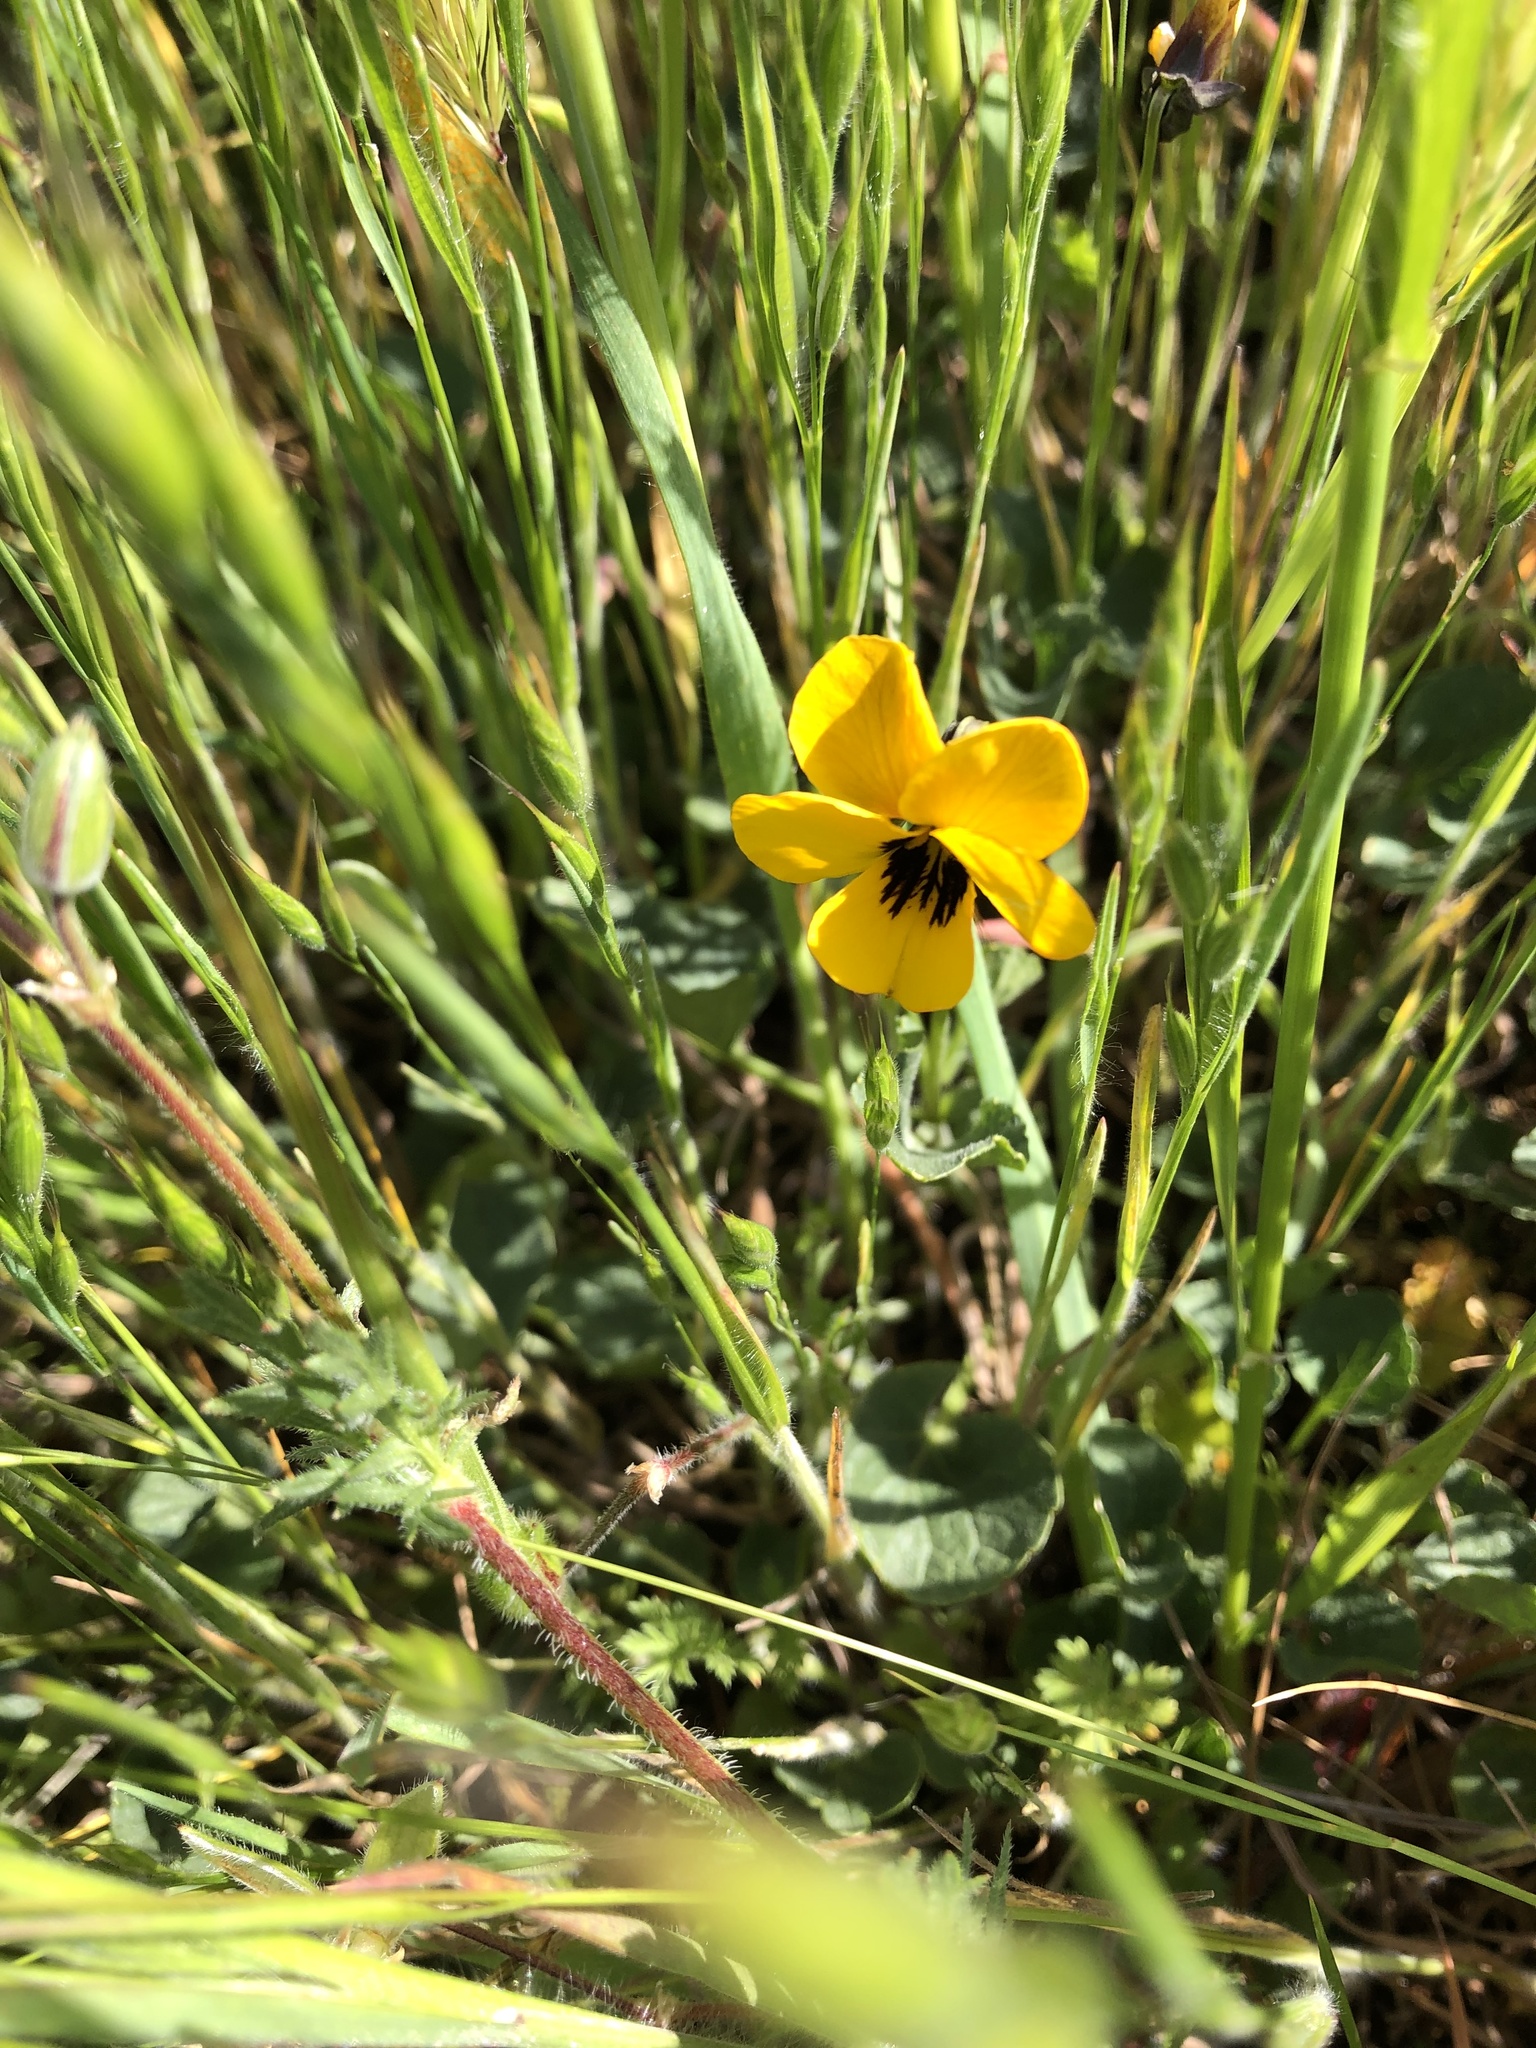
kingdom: Plantae
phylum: Tracheophyta
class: Magnoliopsida
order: Malpighiales
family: Violaceae
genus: Viola
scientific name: Viola pedunculata
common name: California golden violet
